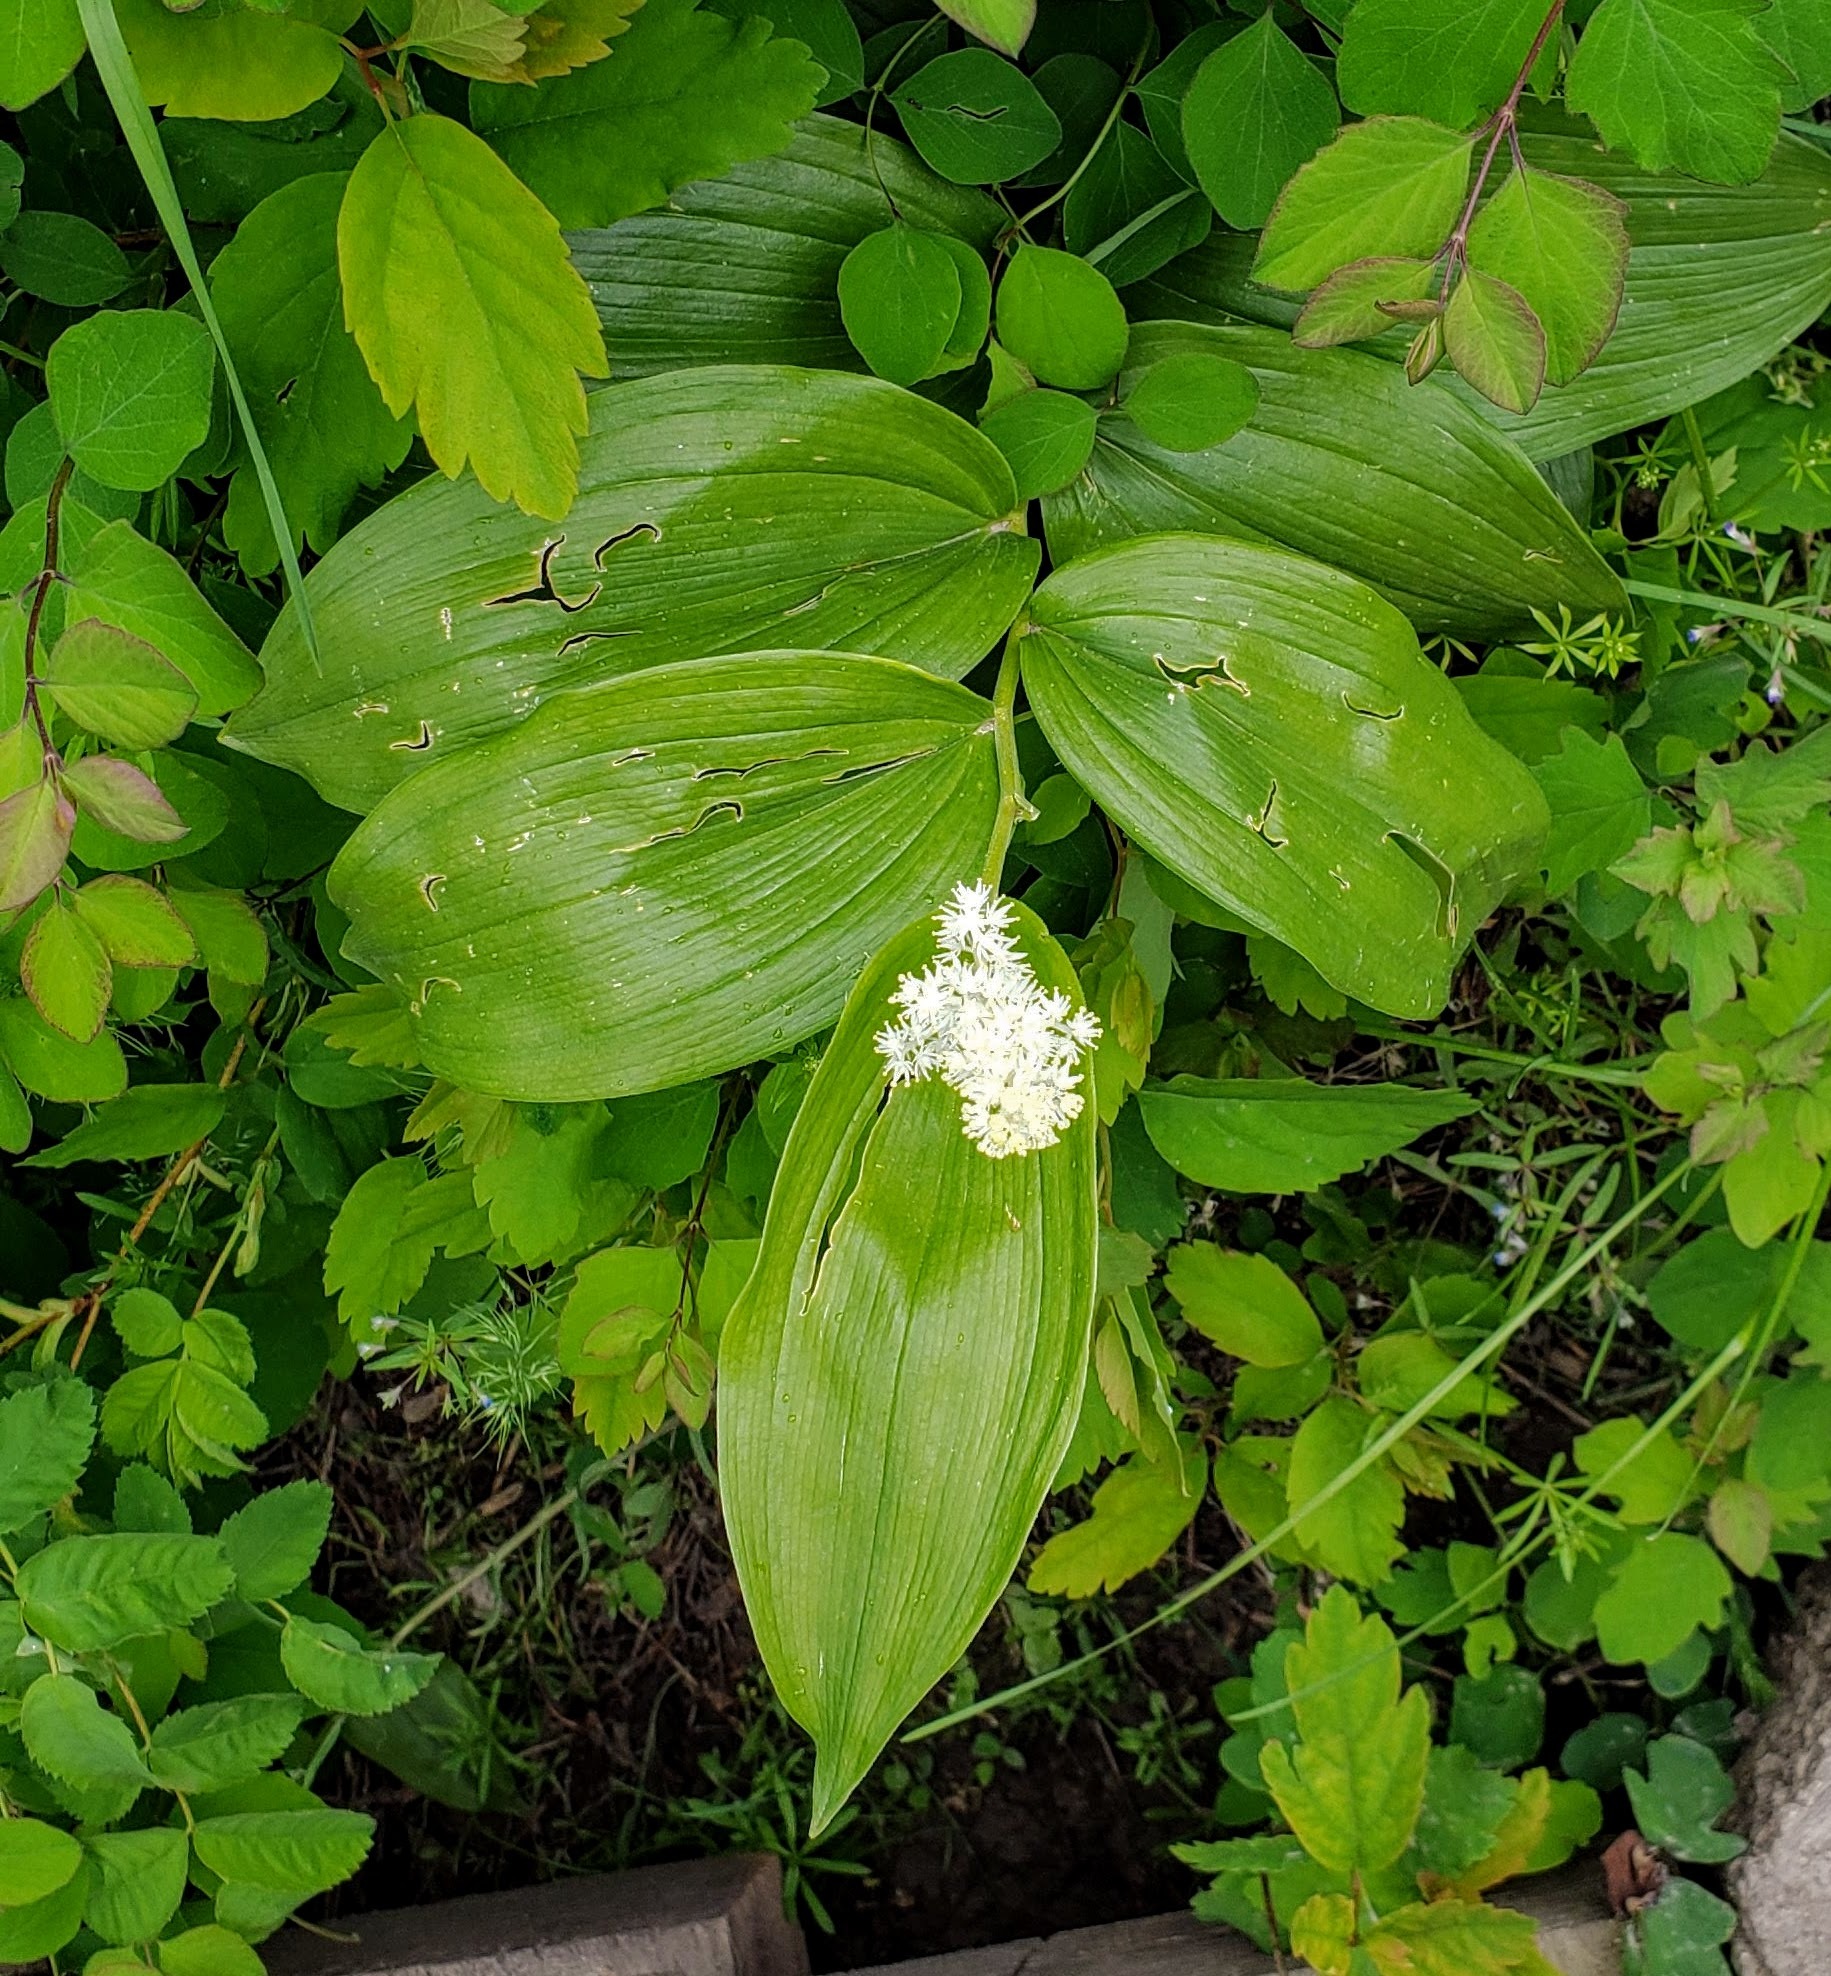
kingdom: Plantae
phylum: Tracheophyta
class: Liliopsida
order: Asparagales
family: Asparagaceae
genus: Maianthemum
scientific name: Maianthemum racemosum
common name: False spikenard
